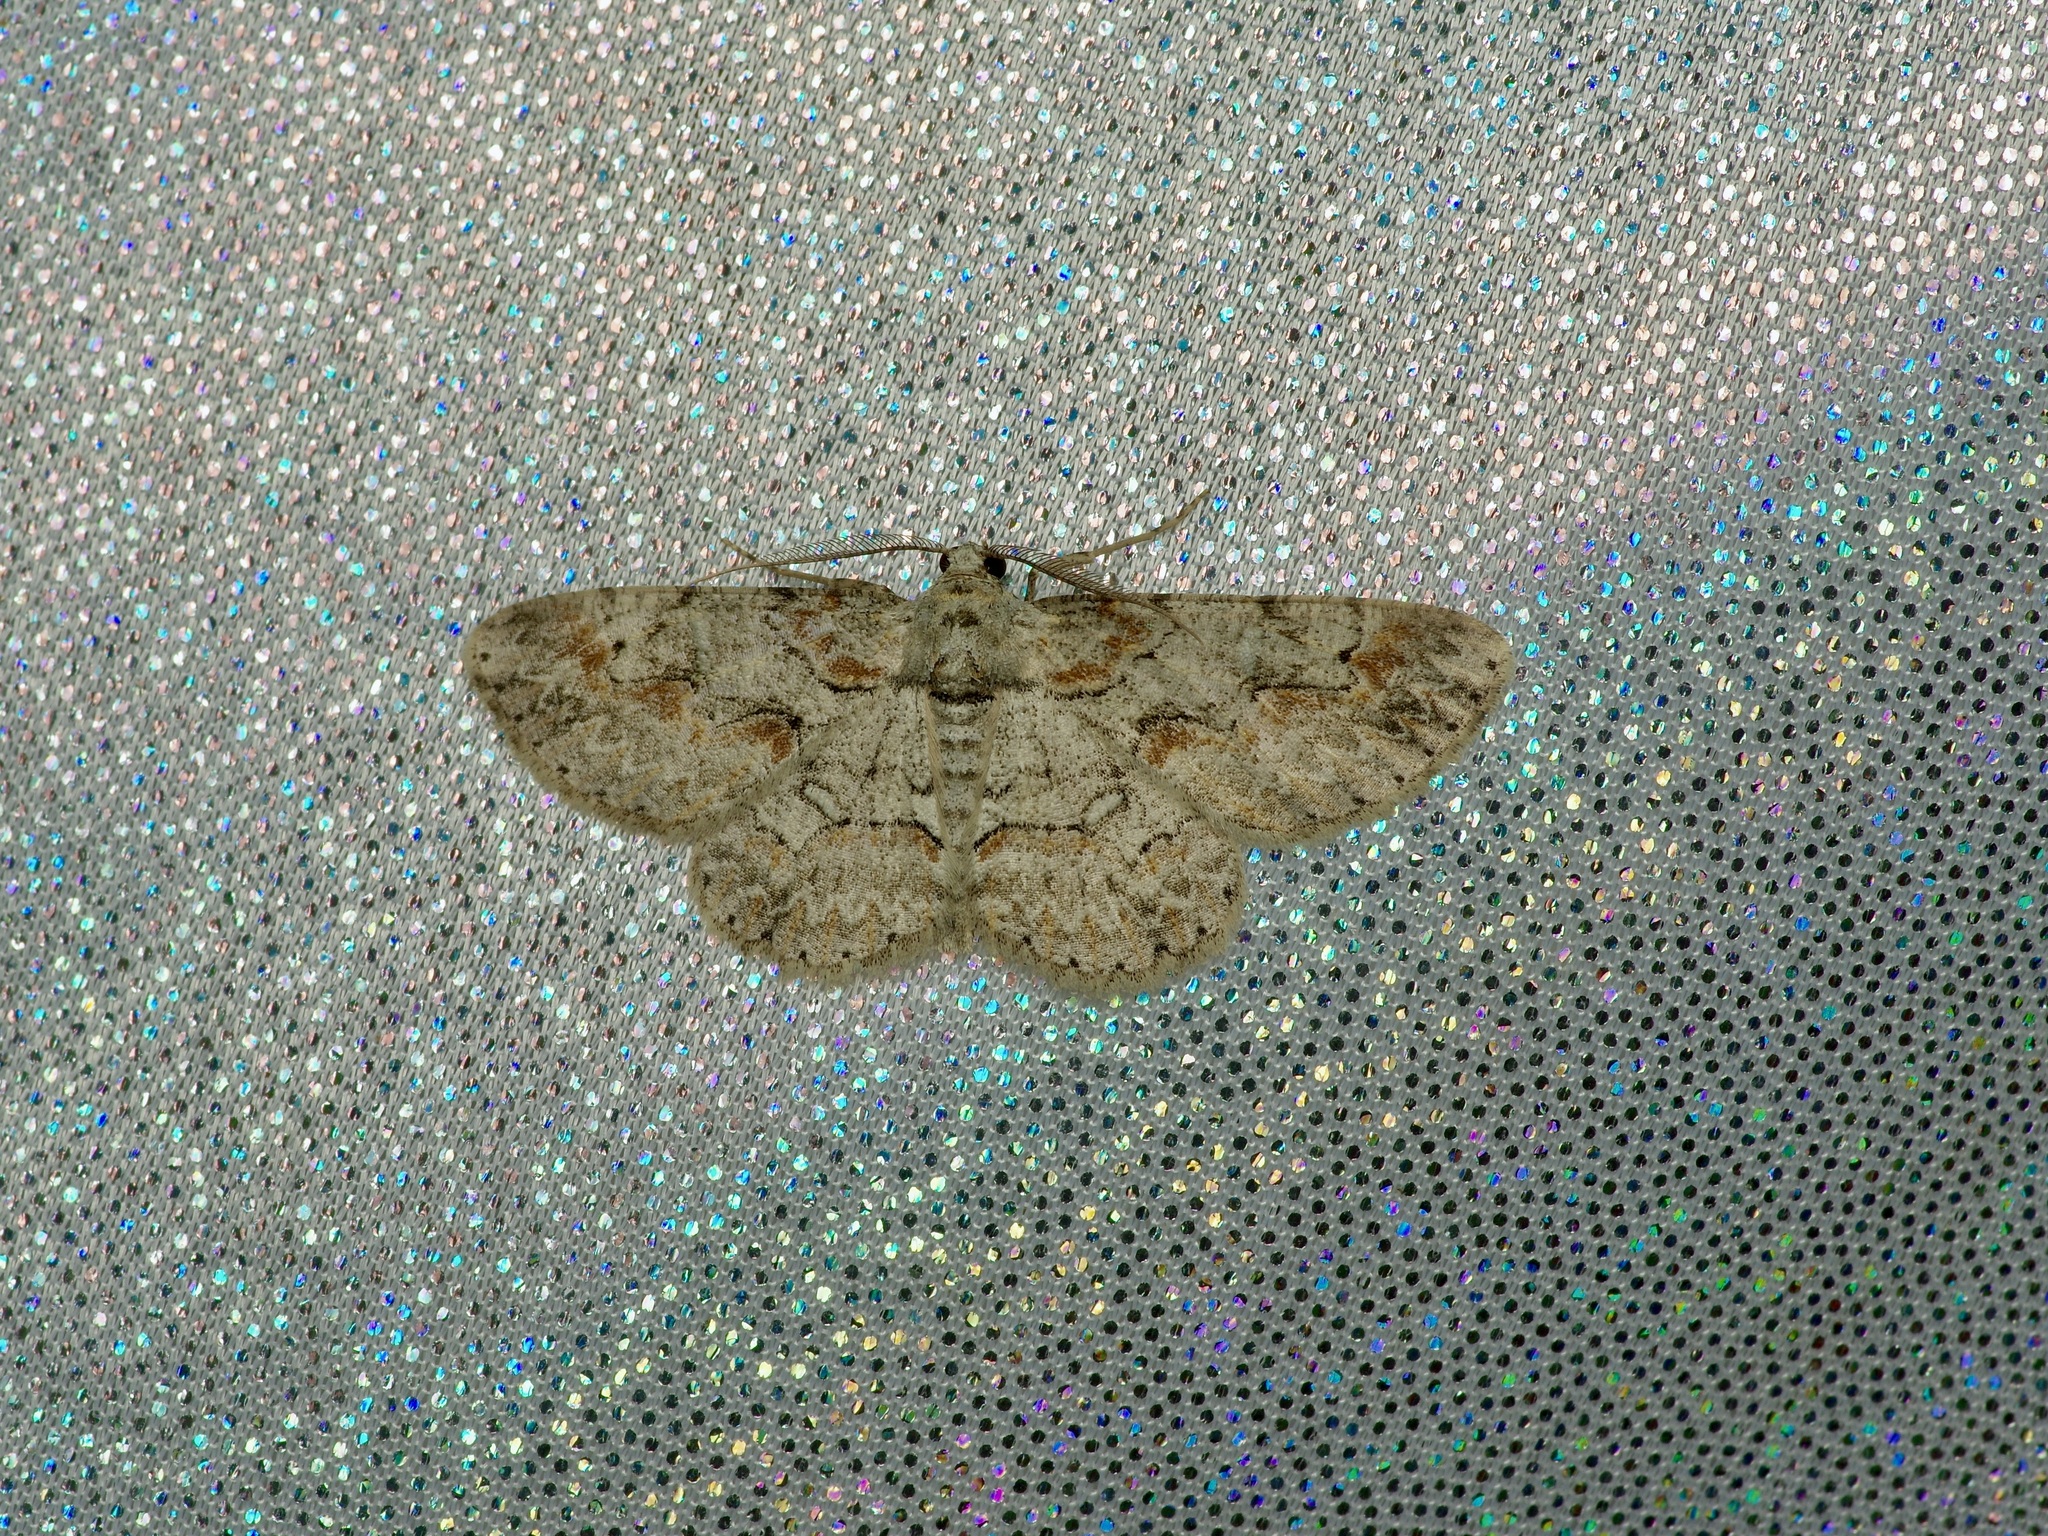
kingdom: Animalia
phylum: Arthropoda
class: Insecta
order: Lepidoptera
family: Geometridae
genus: Iridopsis
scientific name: Iridopsis defectaria
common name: Brown-shaded gray
